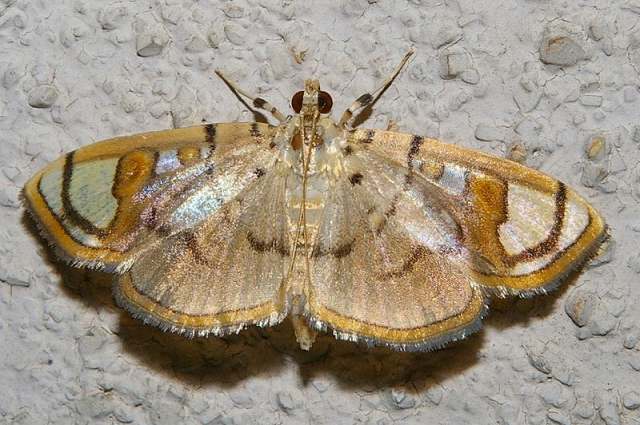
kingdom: Animalia
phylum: Arthropoda
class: Insecta
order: Lepidoptera
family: Crambidae
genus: Pycnarmon
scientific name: Pycnarmon pantherata
